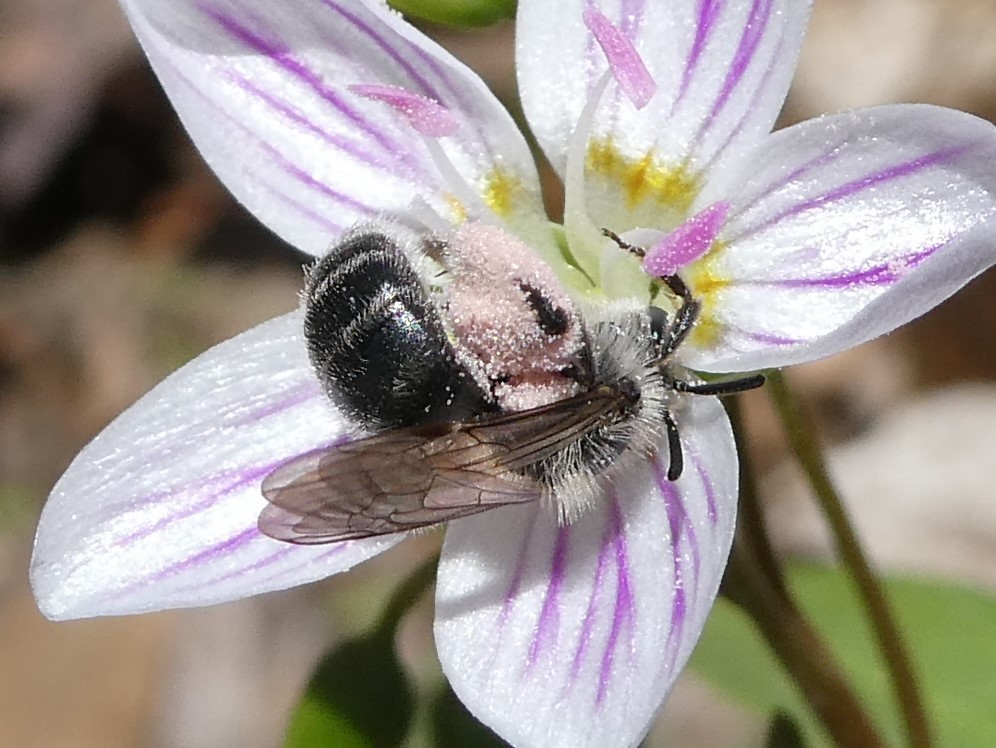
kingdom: Animalia
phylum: Arthropoda
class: Insecta
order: Hymenoptera
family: Andrenidae
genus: Andrena
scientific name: Andrena erigeniae
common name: Spring beauty miner
